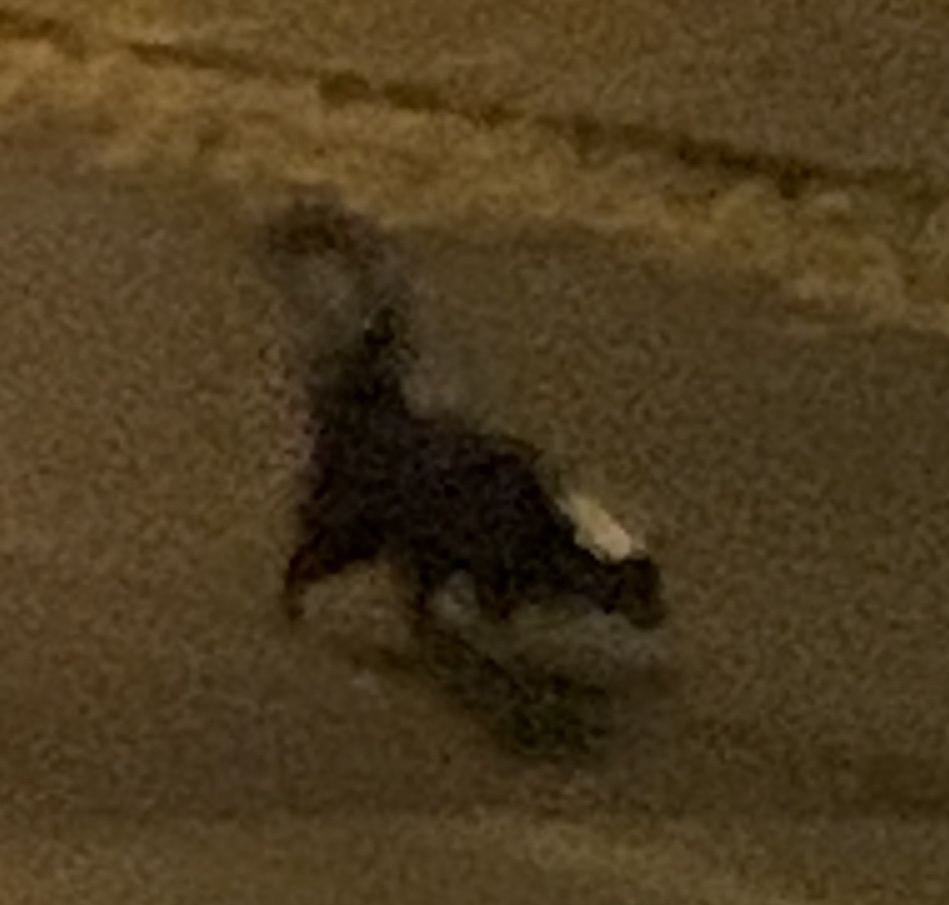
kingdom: Animalia
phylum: Chordata
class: Mammalia
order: Carnivora
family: Mephitidae
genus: Mephitis
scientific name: Mephitis mephitis
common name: Striped skunk
